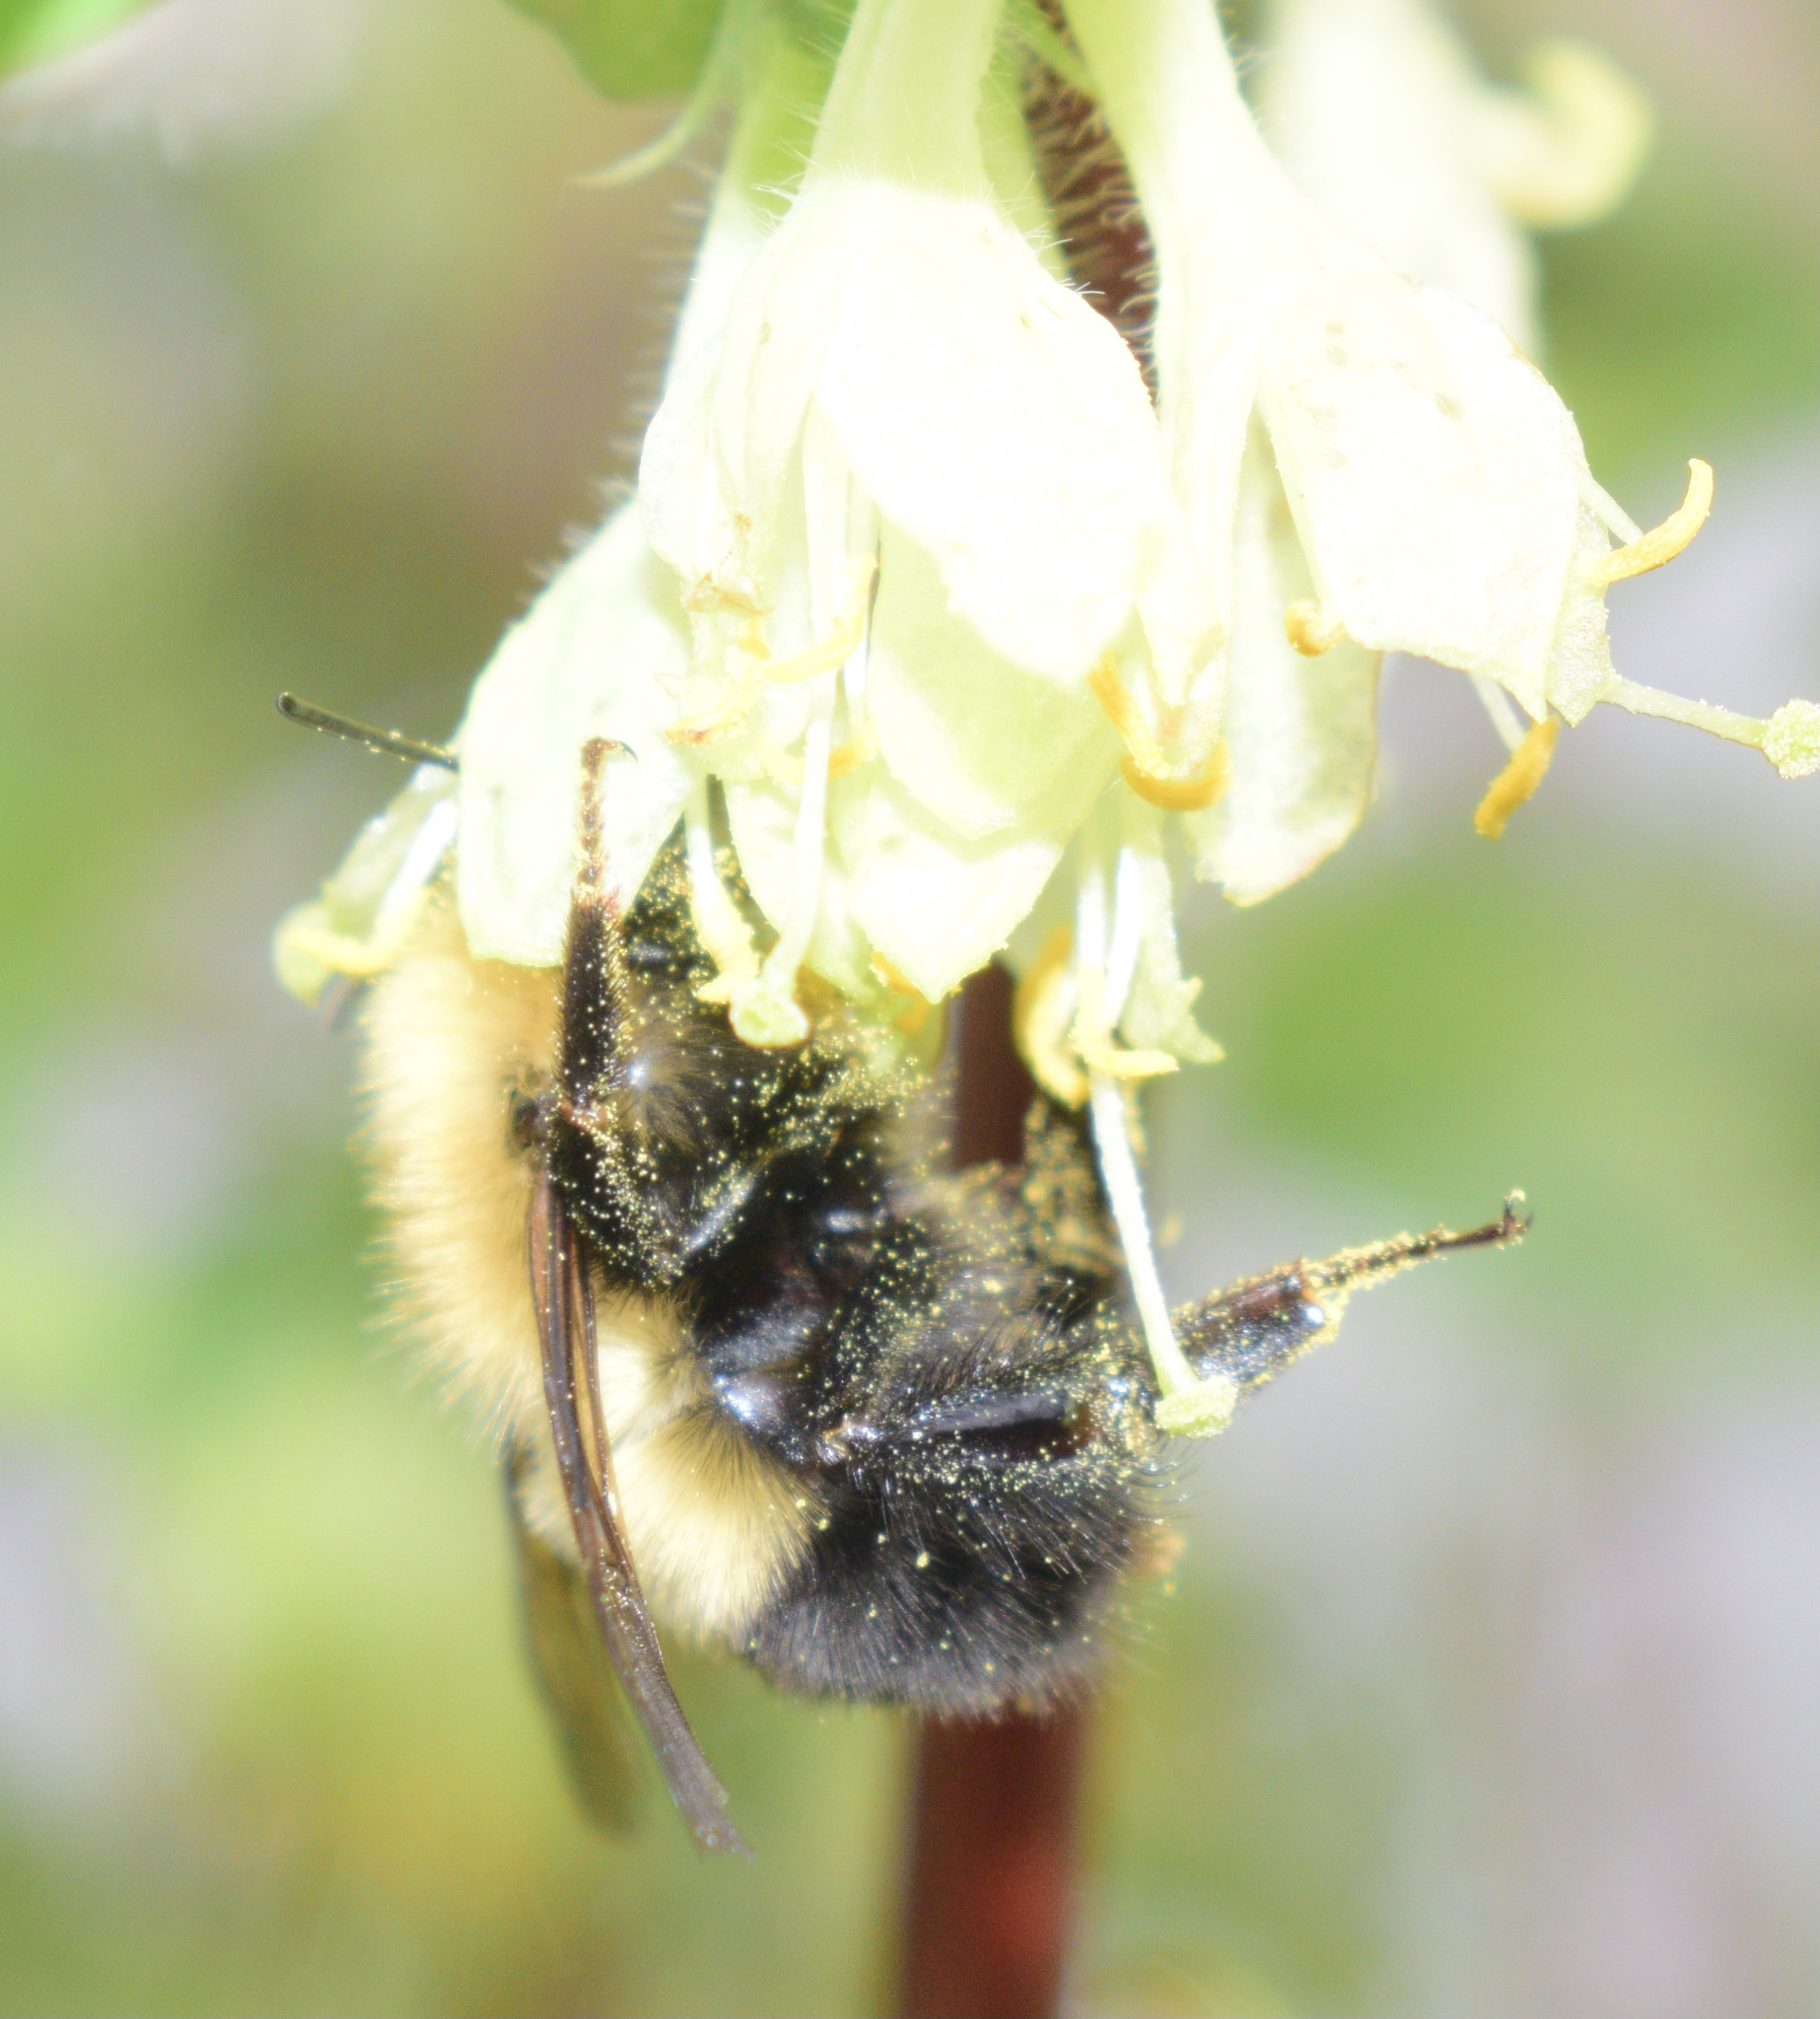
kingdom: Animalia
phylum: Arthropoda
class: Insecta
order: Hymenoptera
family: Apidae
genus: Bombus
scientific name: Bombus perplexus
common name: Confusing bumble bee
